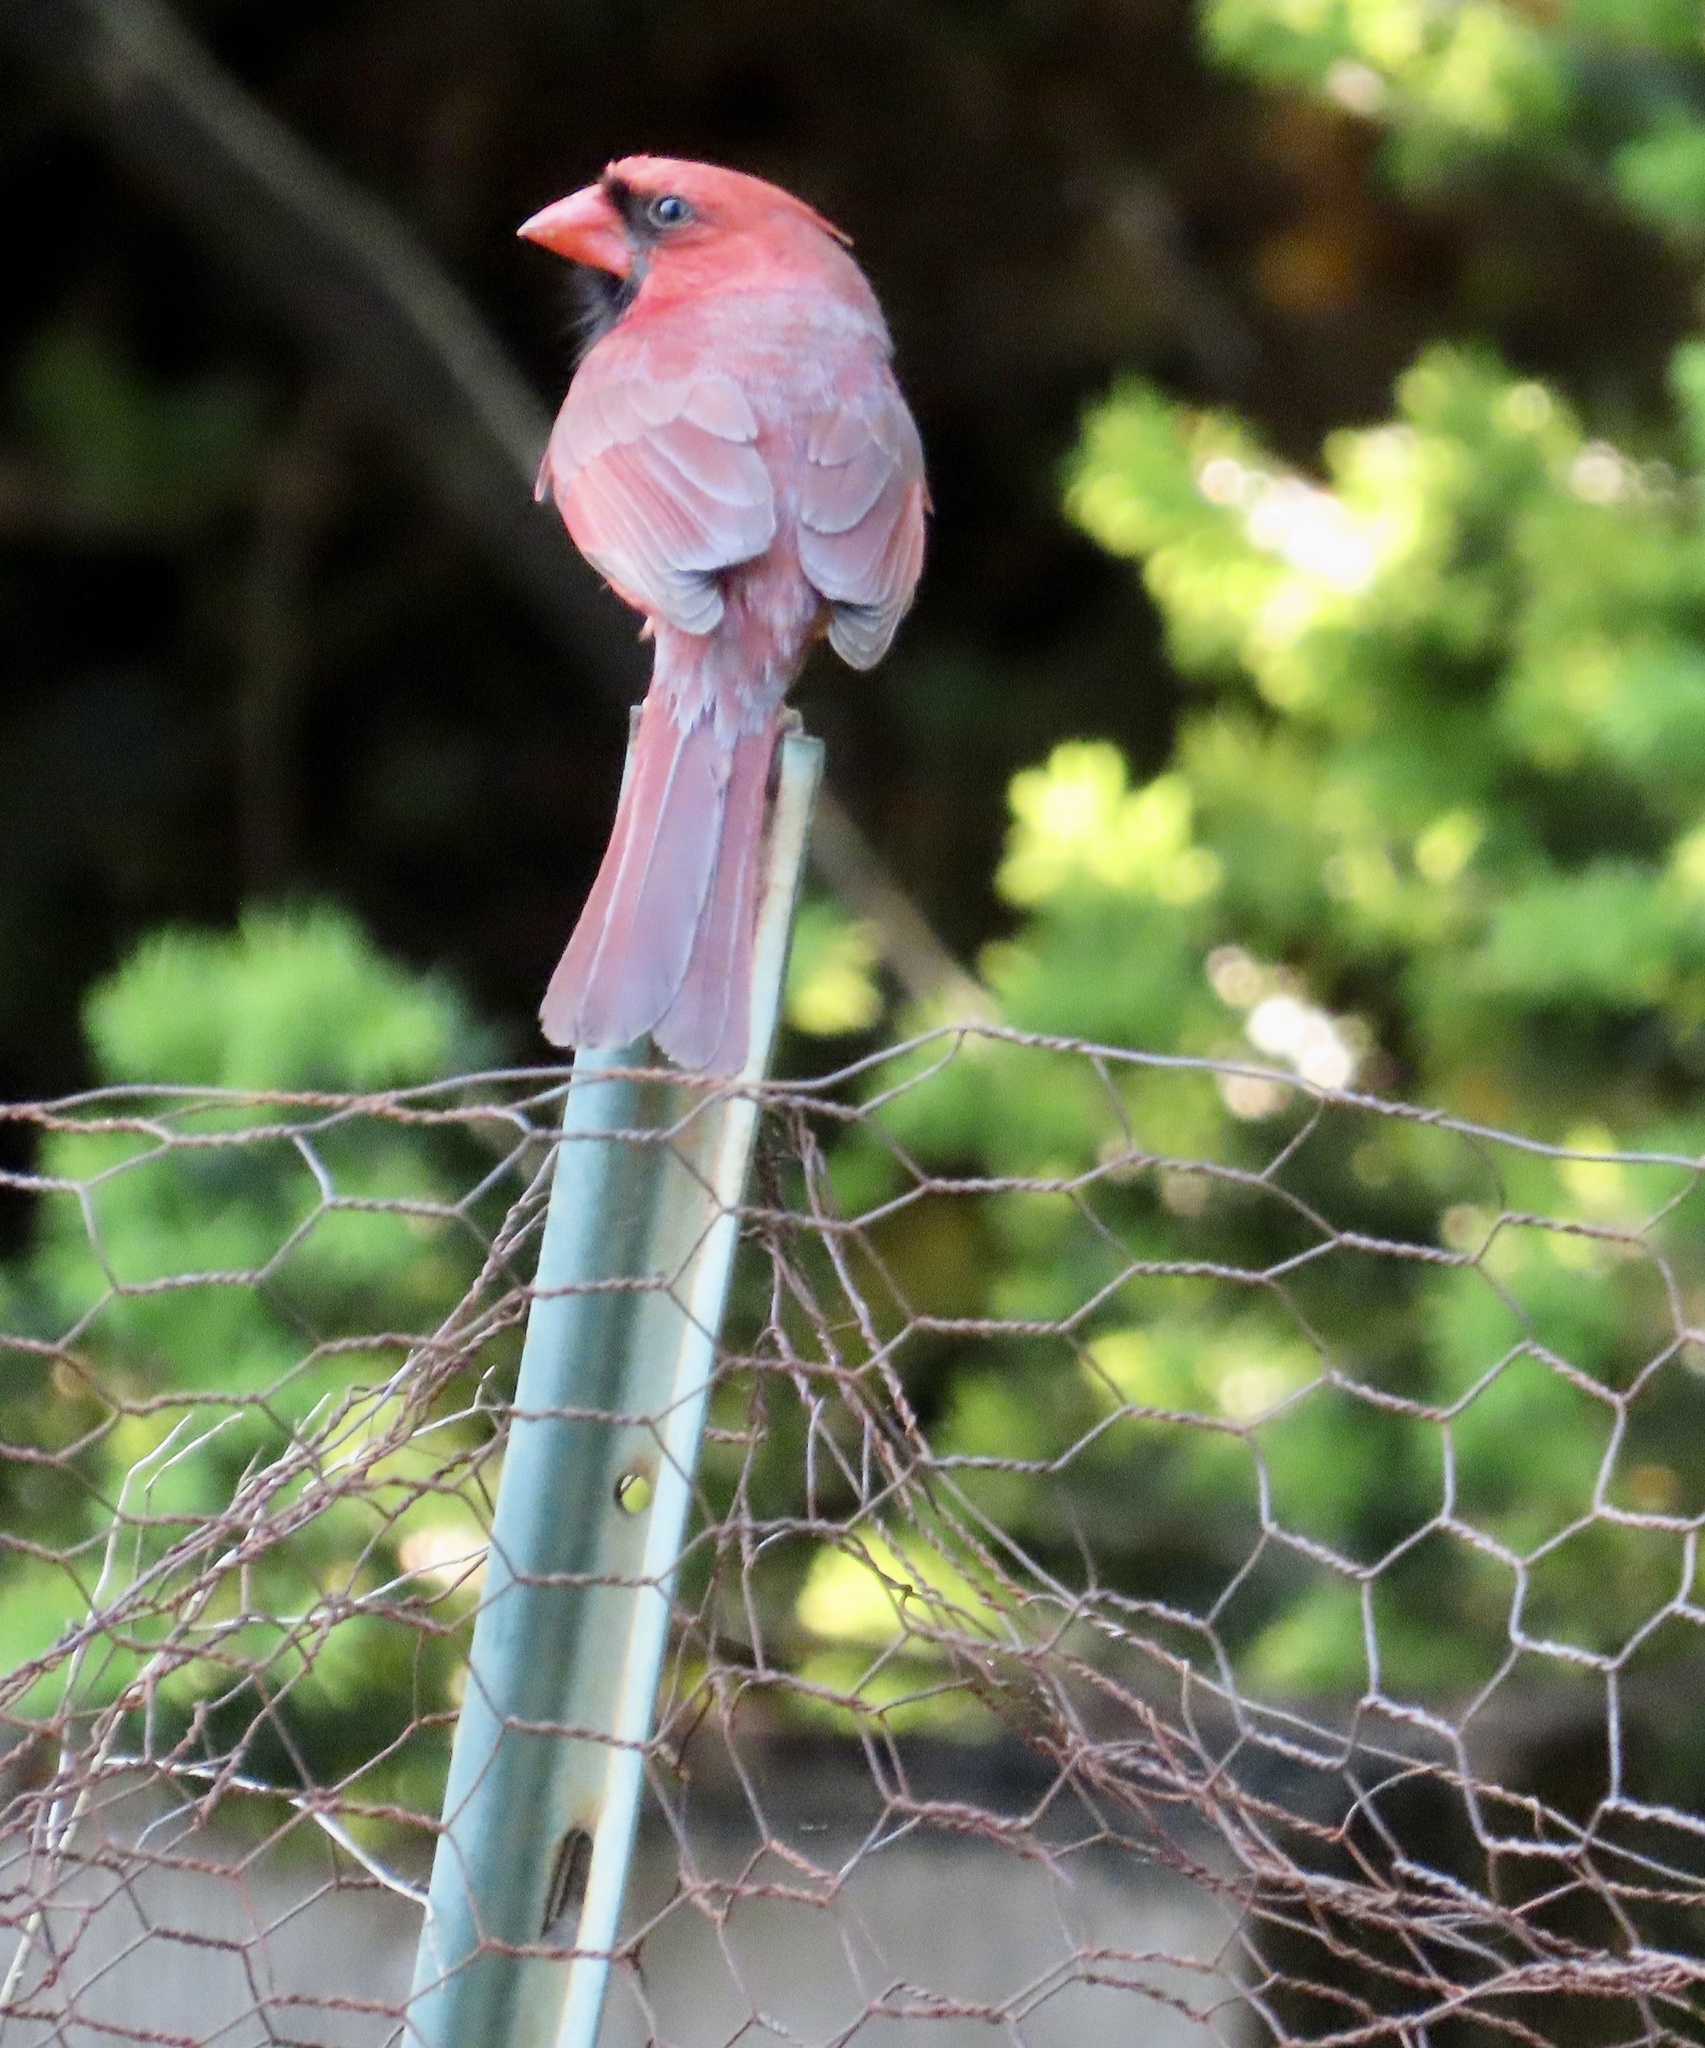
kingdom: Animalia
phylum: Chordata
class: Aves
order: Passeriformes
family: Cardinalidae
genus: Cardinalis
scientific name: Cardinalis cardinalis
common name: Northern cardinal
